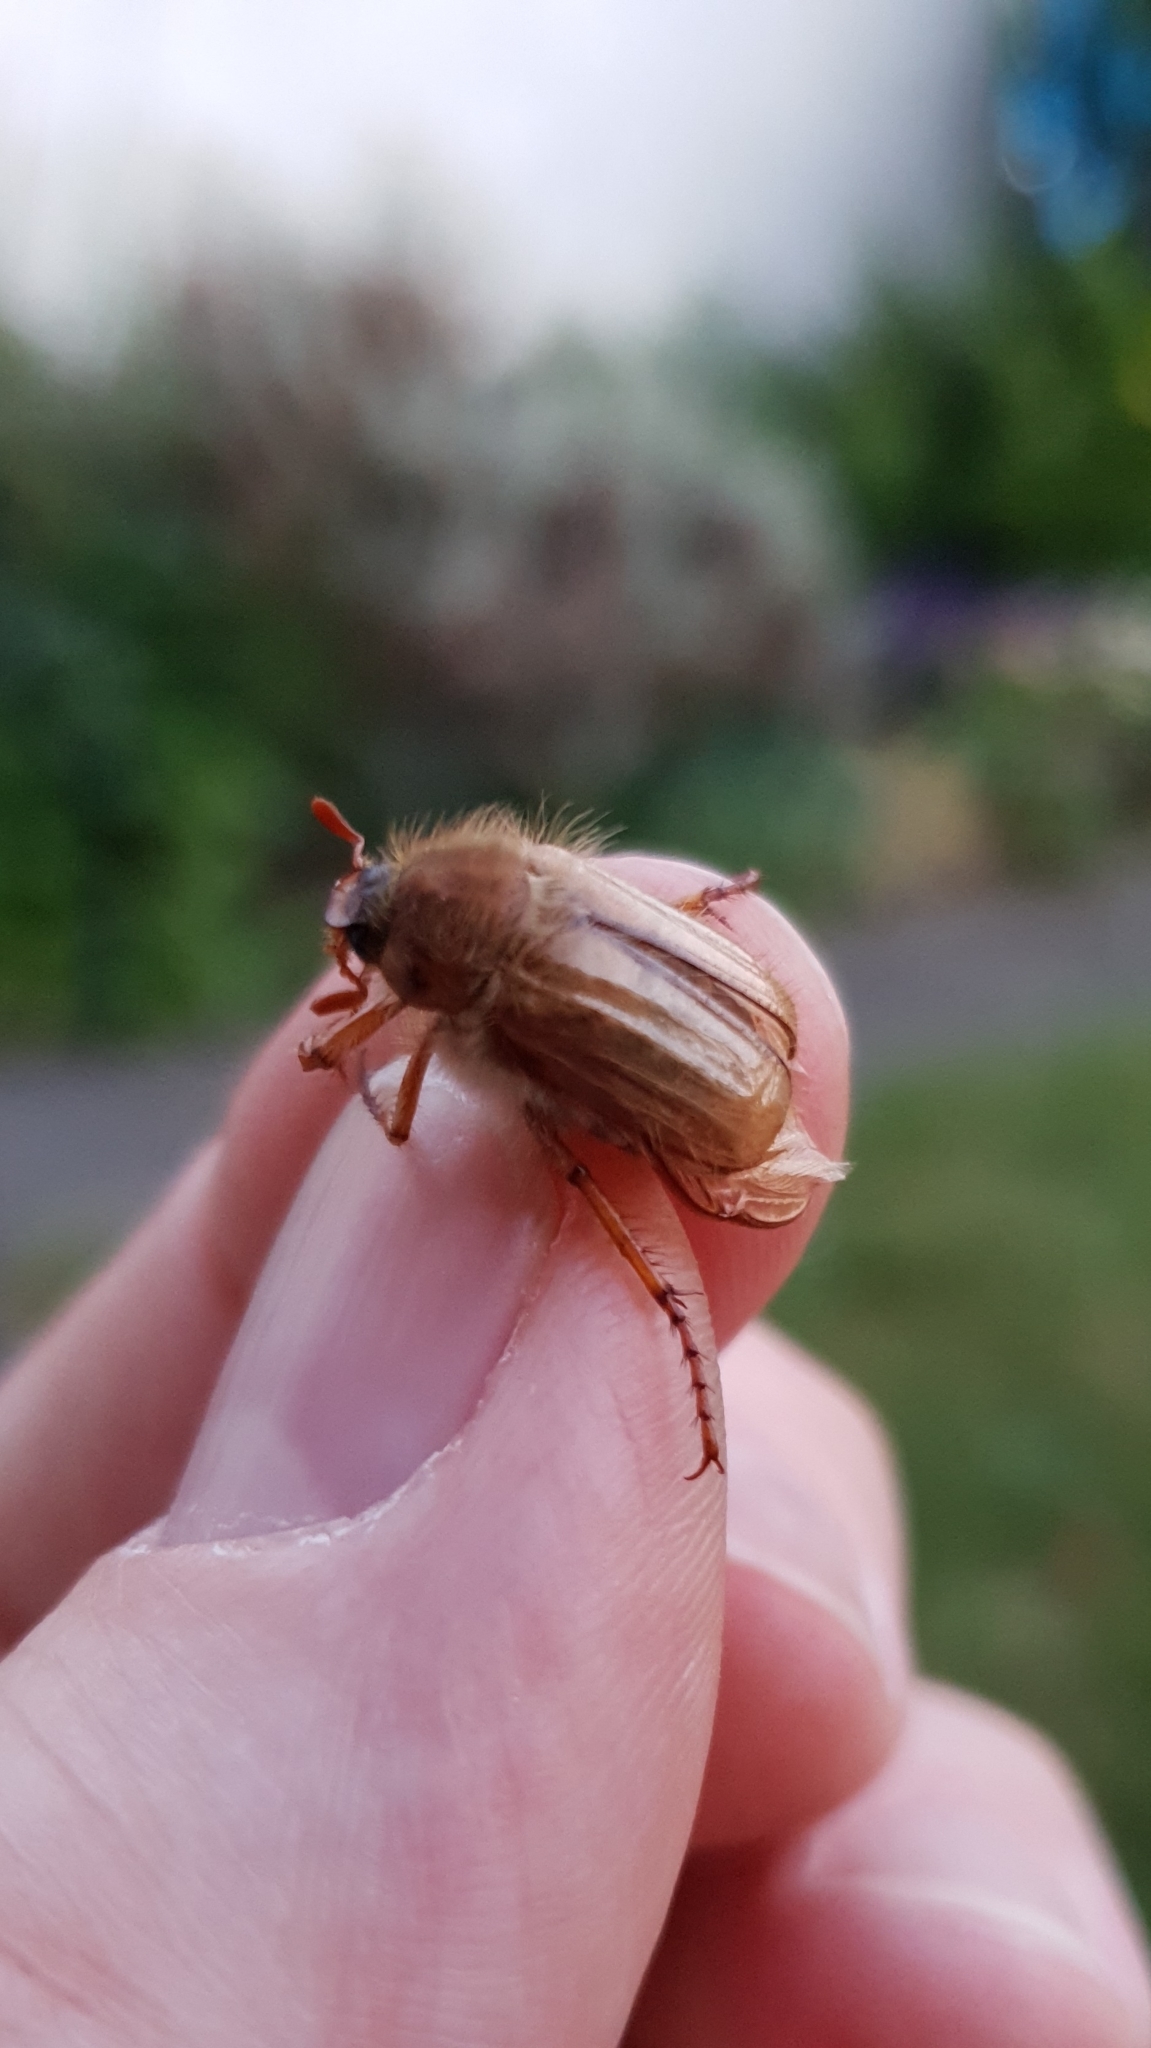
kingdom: Animalia
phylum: Arthropoda
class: Insecta
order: Coleoptera
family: Scarabaeidae
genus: Amphimallon
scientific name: Amphimallon solstitiale
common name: Summer chafer
